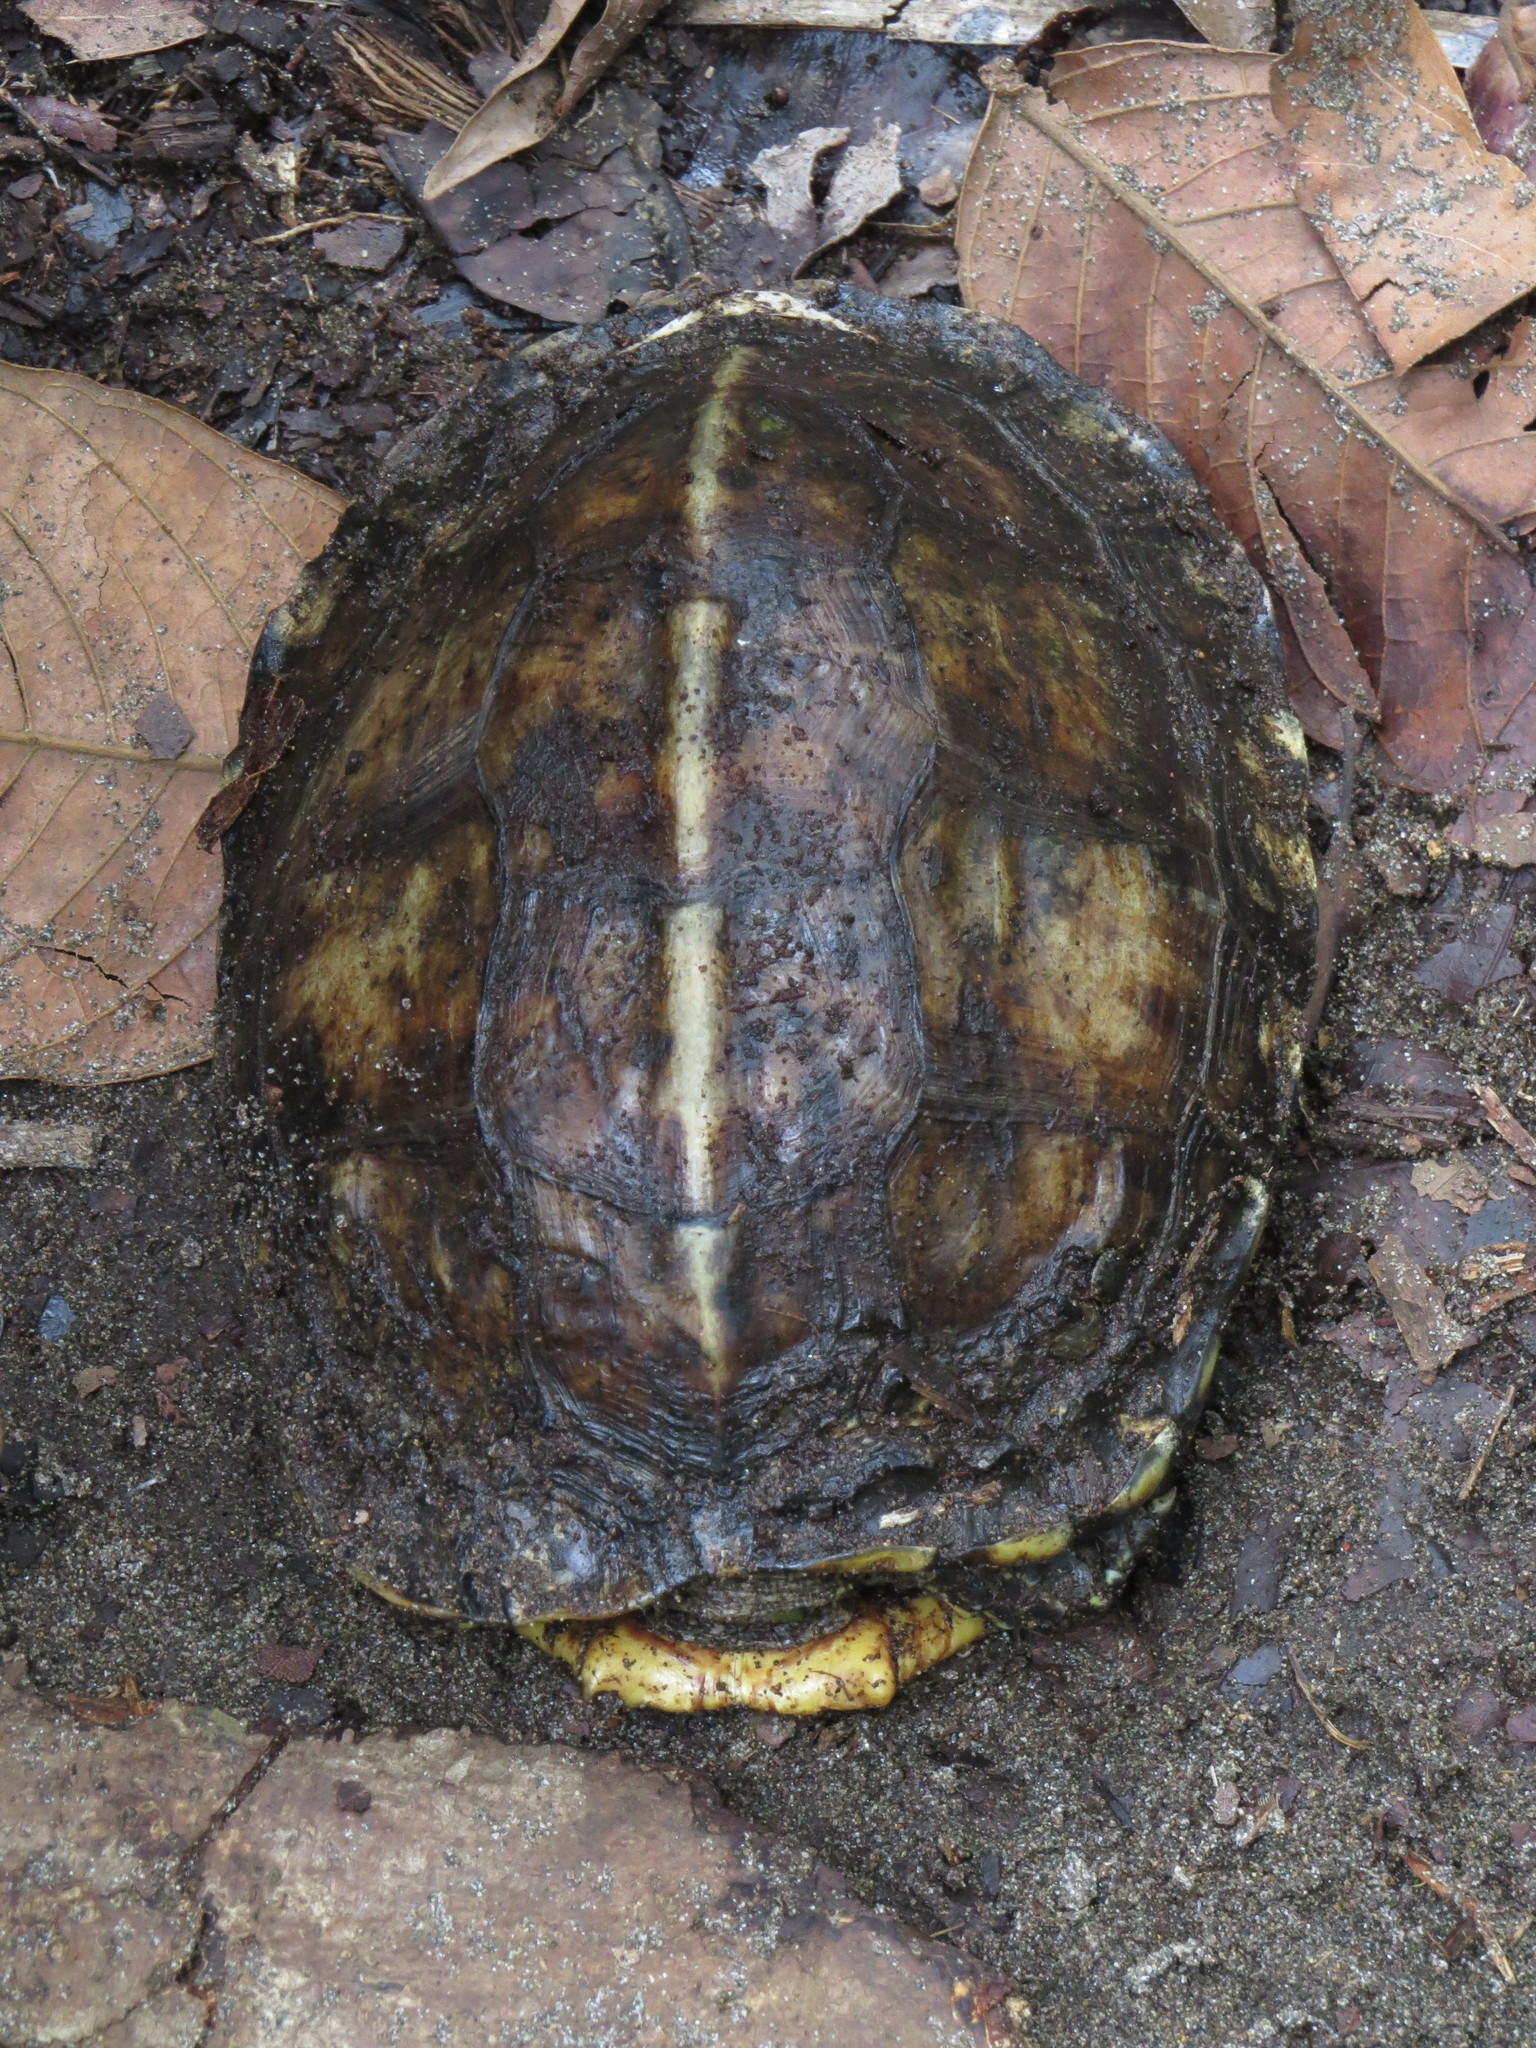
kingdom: Animalia
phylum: Chordata
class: Testudines
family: Geoemydidae
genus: Rhinoclemmys
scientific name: Rhinoclemmys annulata
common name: Brown wood turtle
